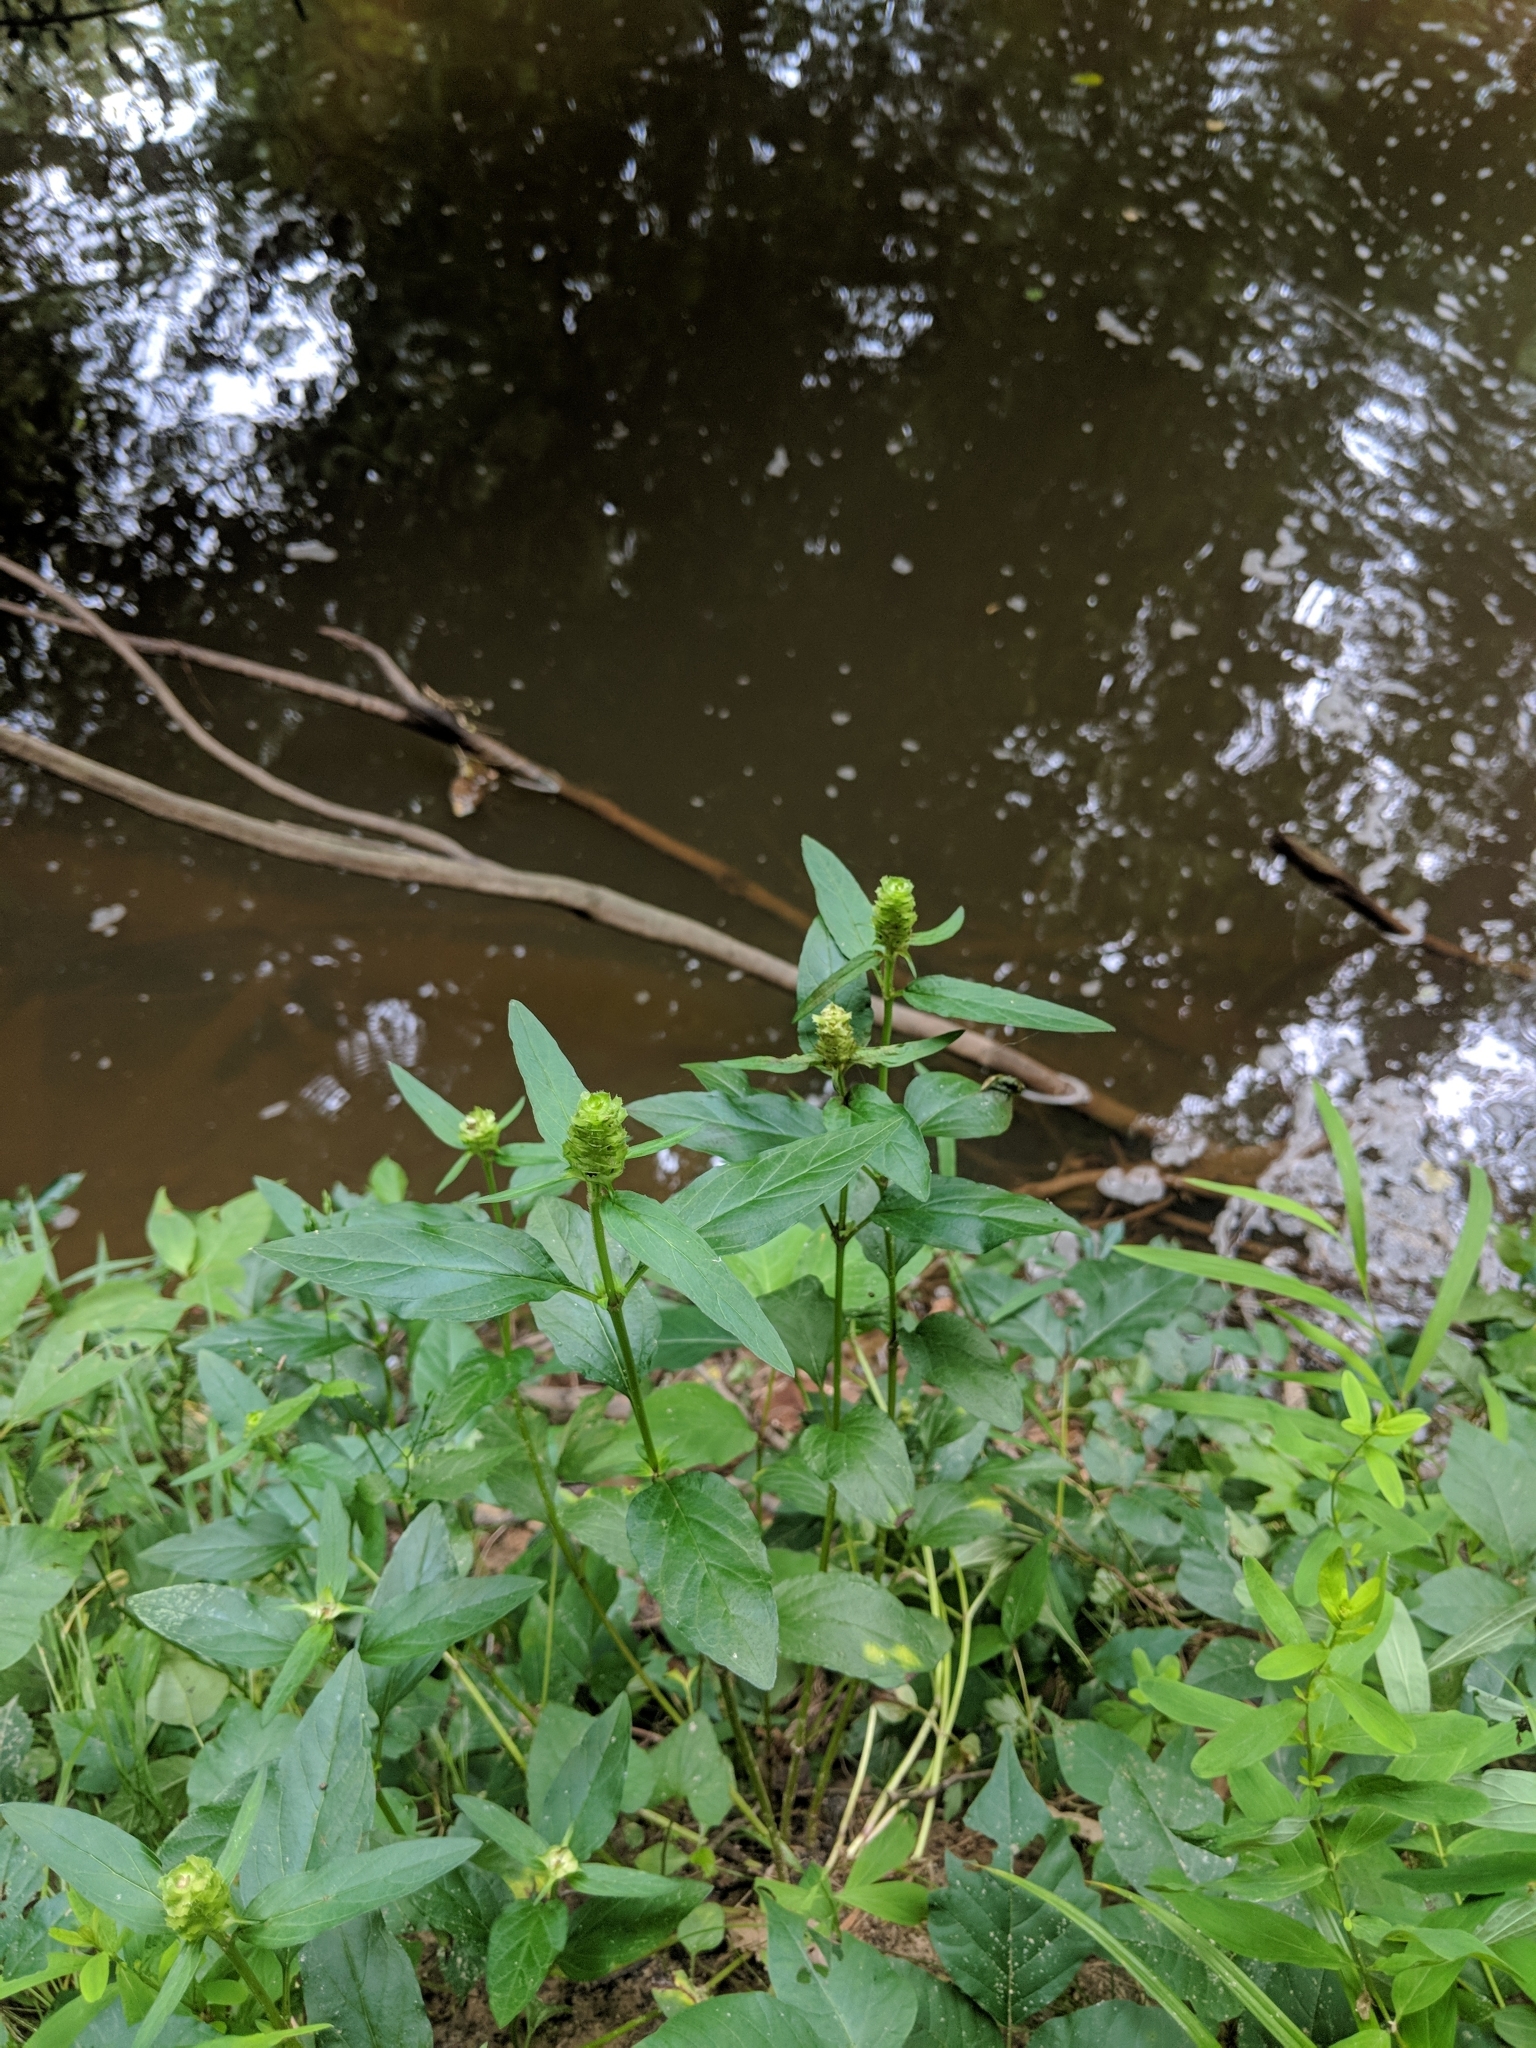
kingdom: Plantae
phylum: Tracheophyta
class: Magnoliopsida
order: Lamiales
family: Lamiaceae
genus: Prunella
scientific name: Prunella vulgaris
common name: Heal-all
